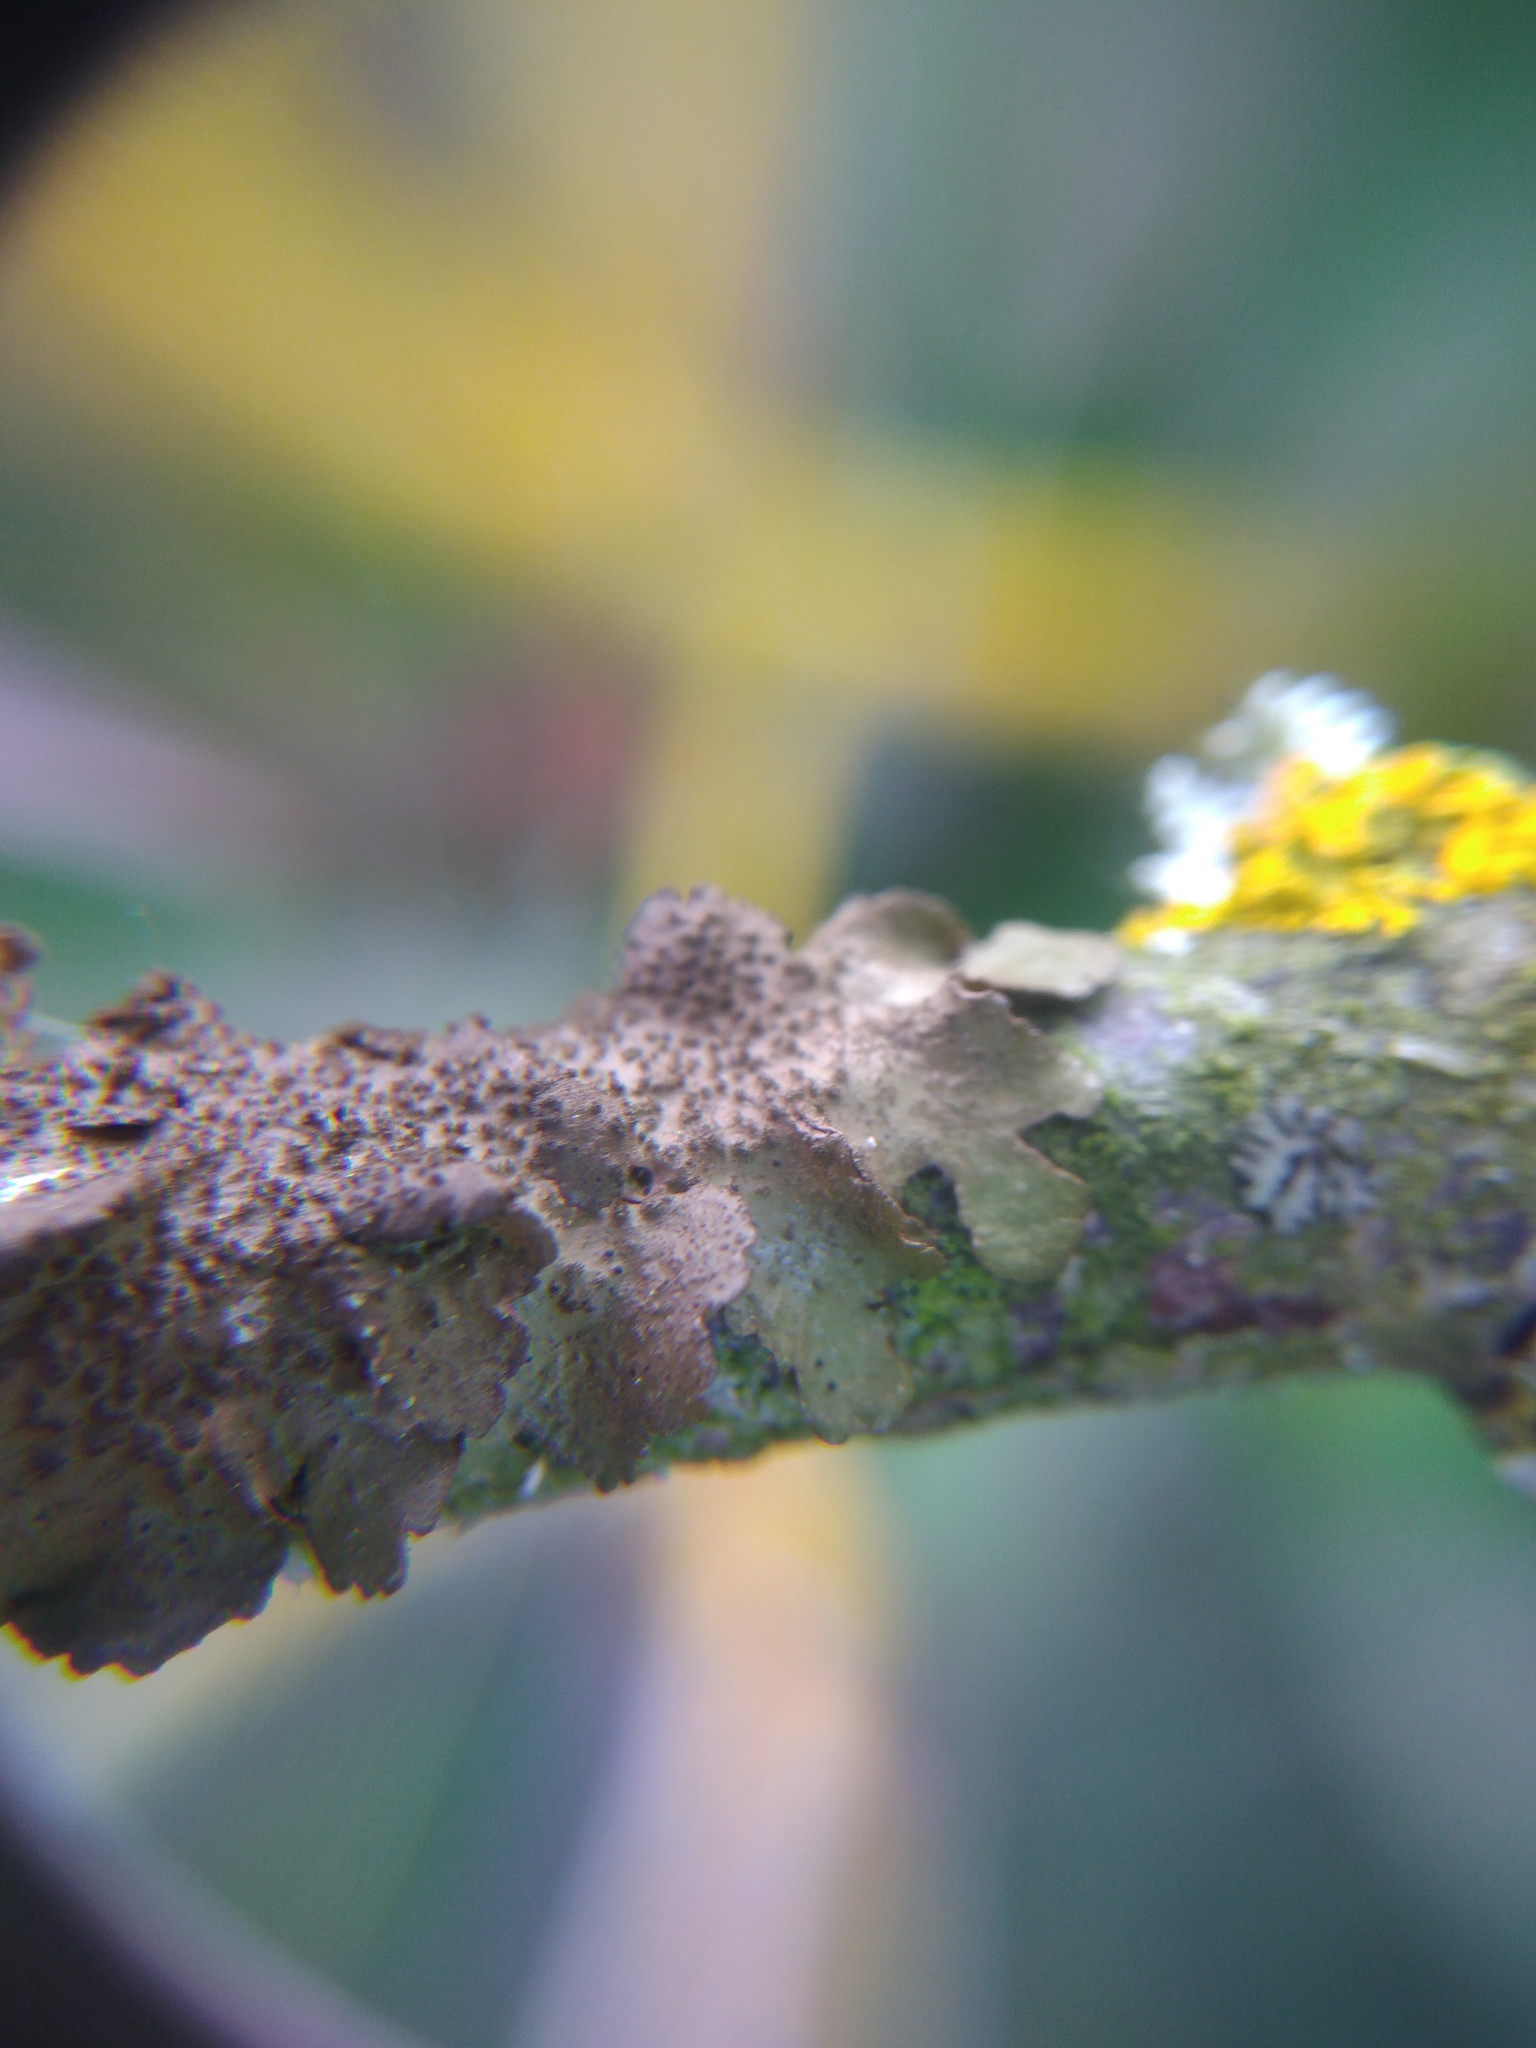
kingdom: Fungi
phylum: Ascomycota
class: Lecanoromycetes
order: Lecanorales
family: Parmeliaceae
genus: Melanohalea
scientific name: Melanohalea exasperatula
